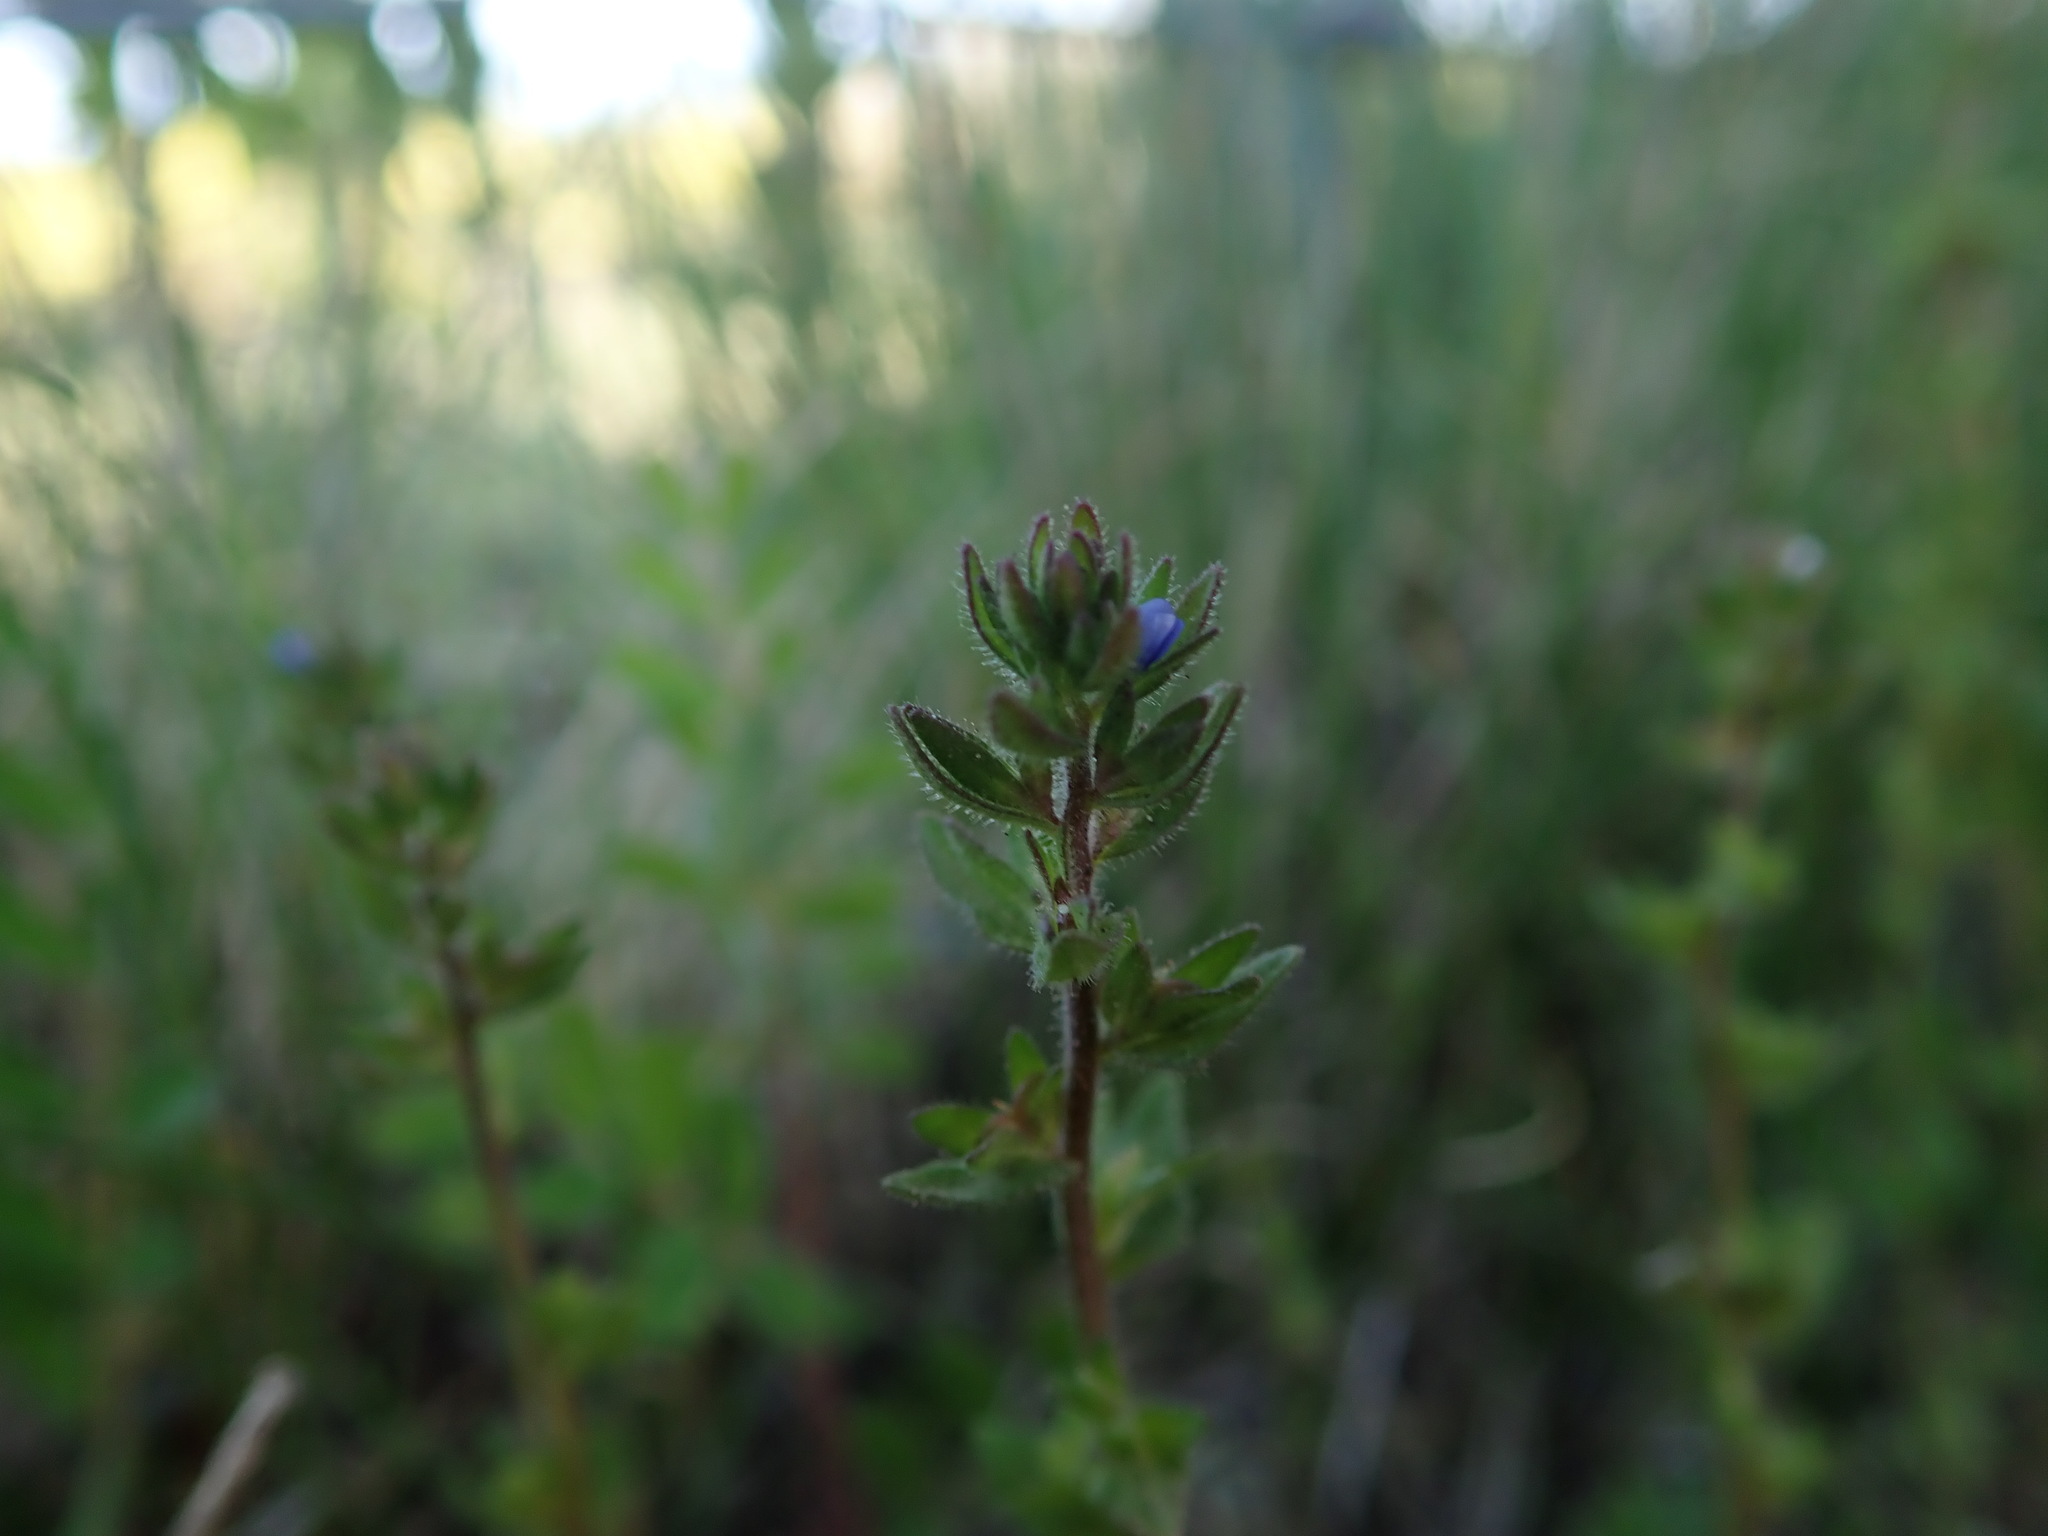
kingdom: Plantae
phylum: Tracheophyta
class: Magnoliopsida
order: Lamiales
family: Plantaginaceae
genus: Veronica
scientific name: Veronica arvensis
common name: Corn speedwell
